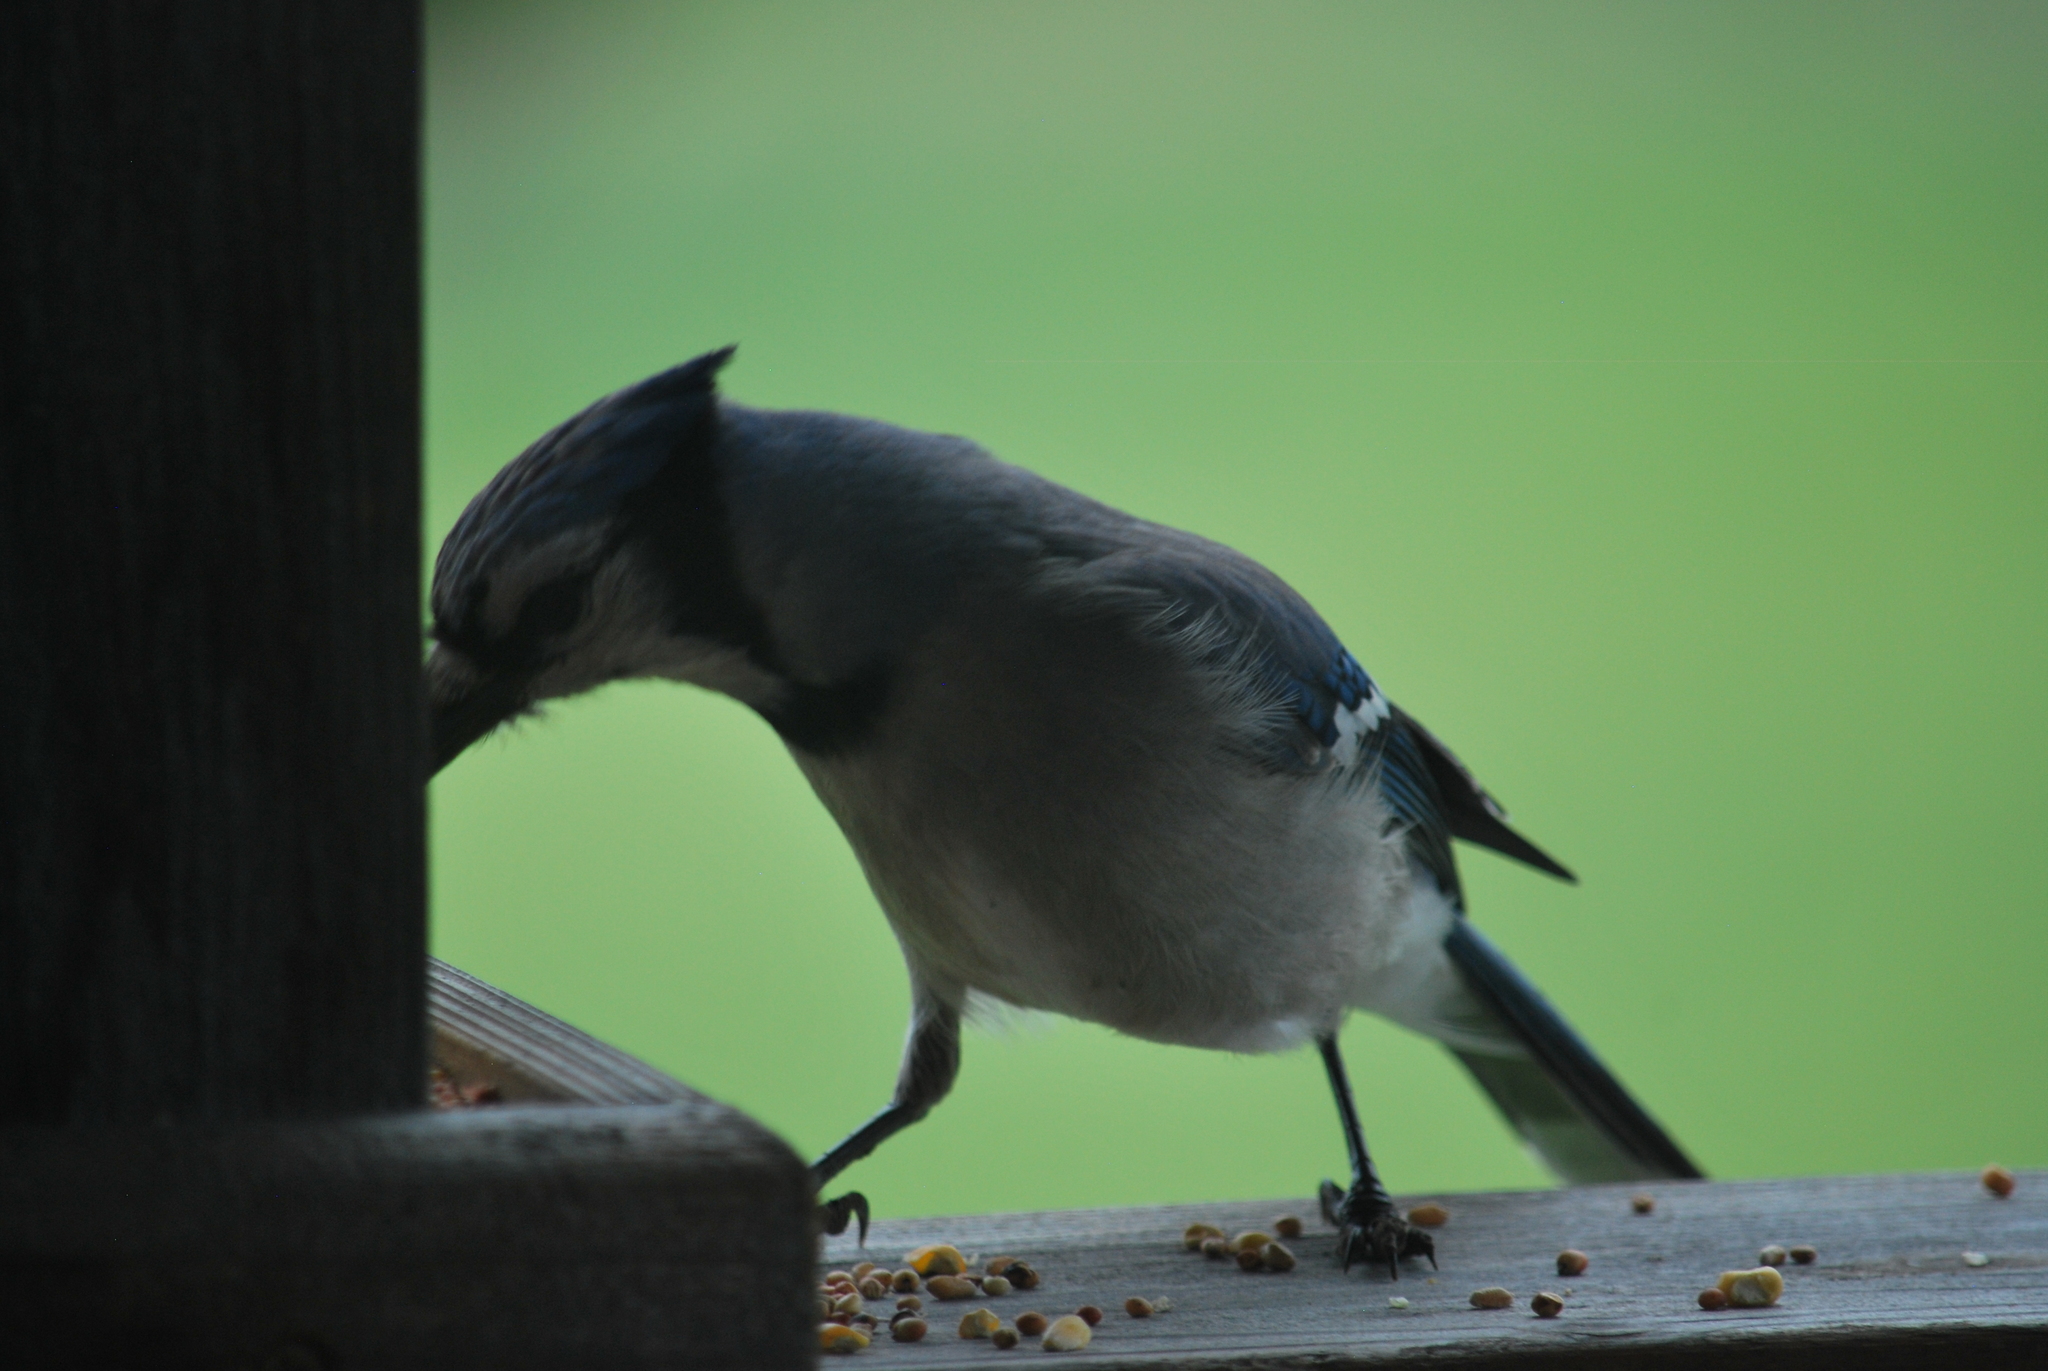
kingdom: Animalia
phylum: Chordata
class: Aves
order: Passeriformes
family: Corvidae
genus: Cyanocitta
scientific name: Cyanocitta cristata
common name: Blue jay
